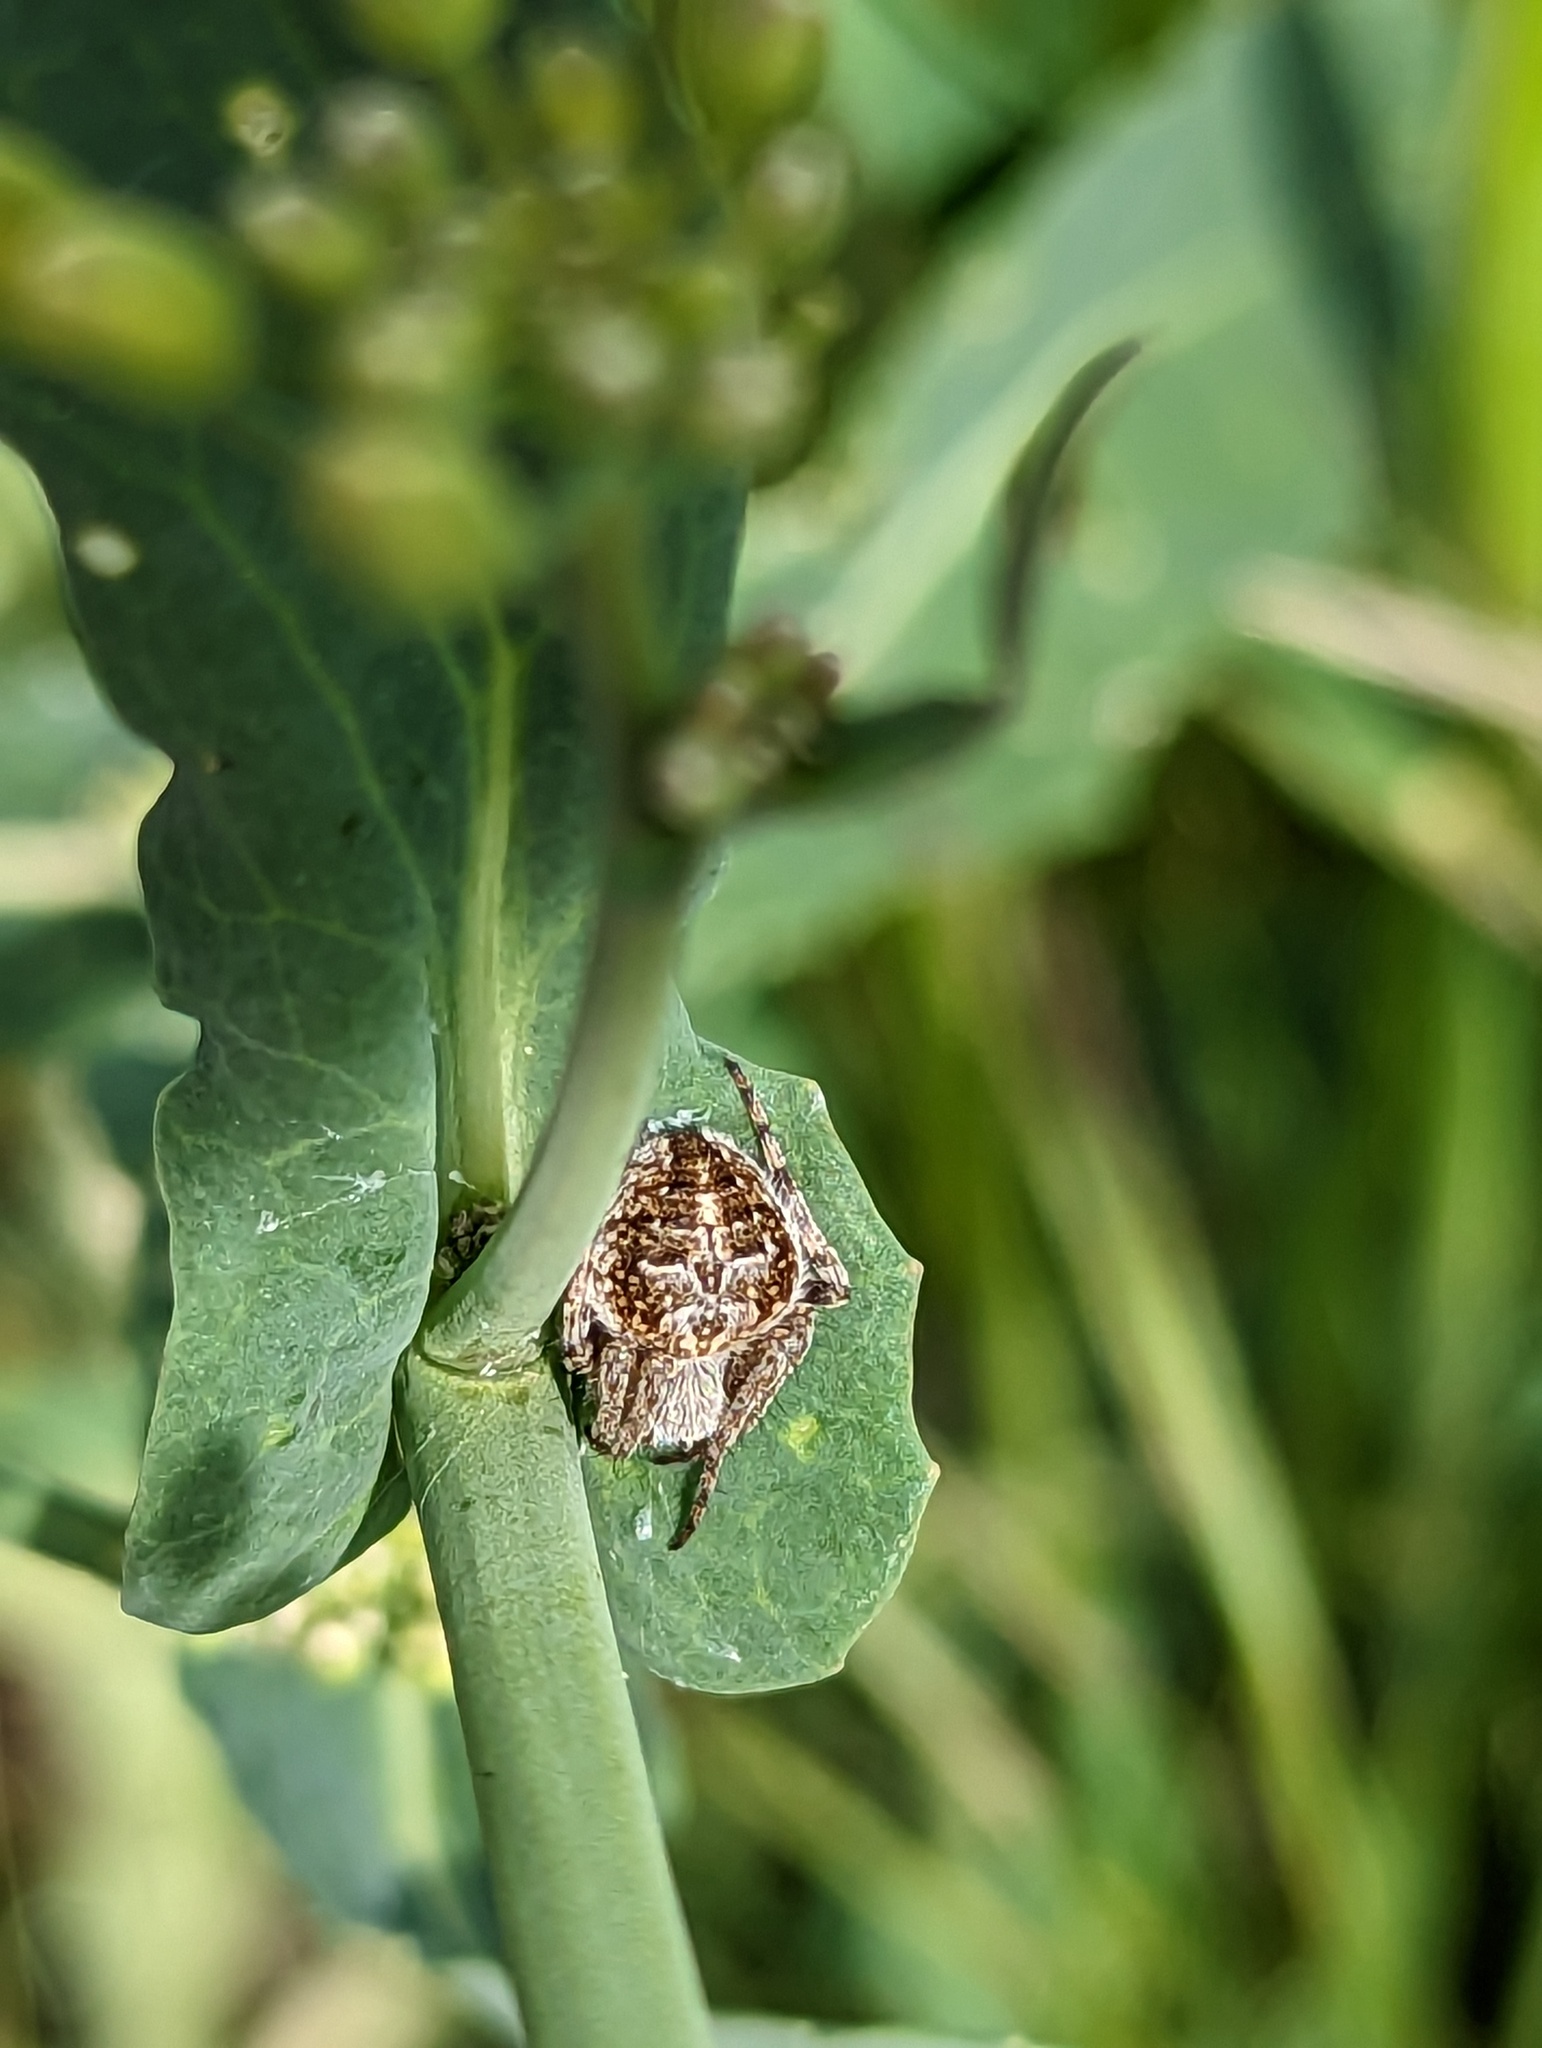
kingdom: Animalia
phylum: Arthropoda
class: Arachnida
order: Araneae
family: Araneidae
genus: Agalenatea
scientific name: Agalenatea redii
